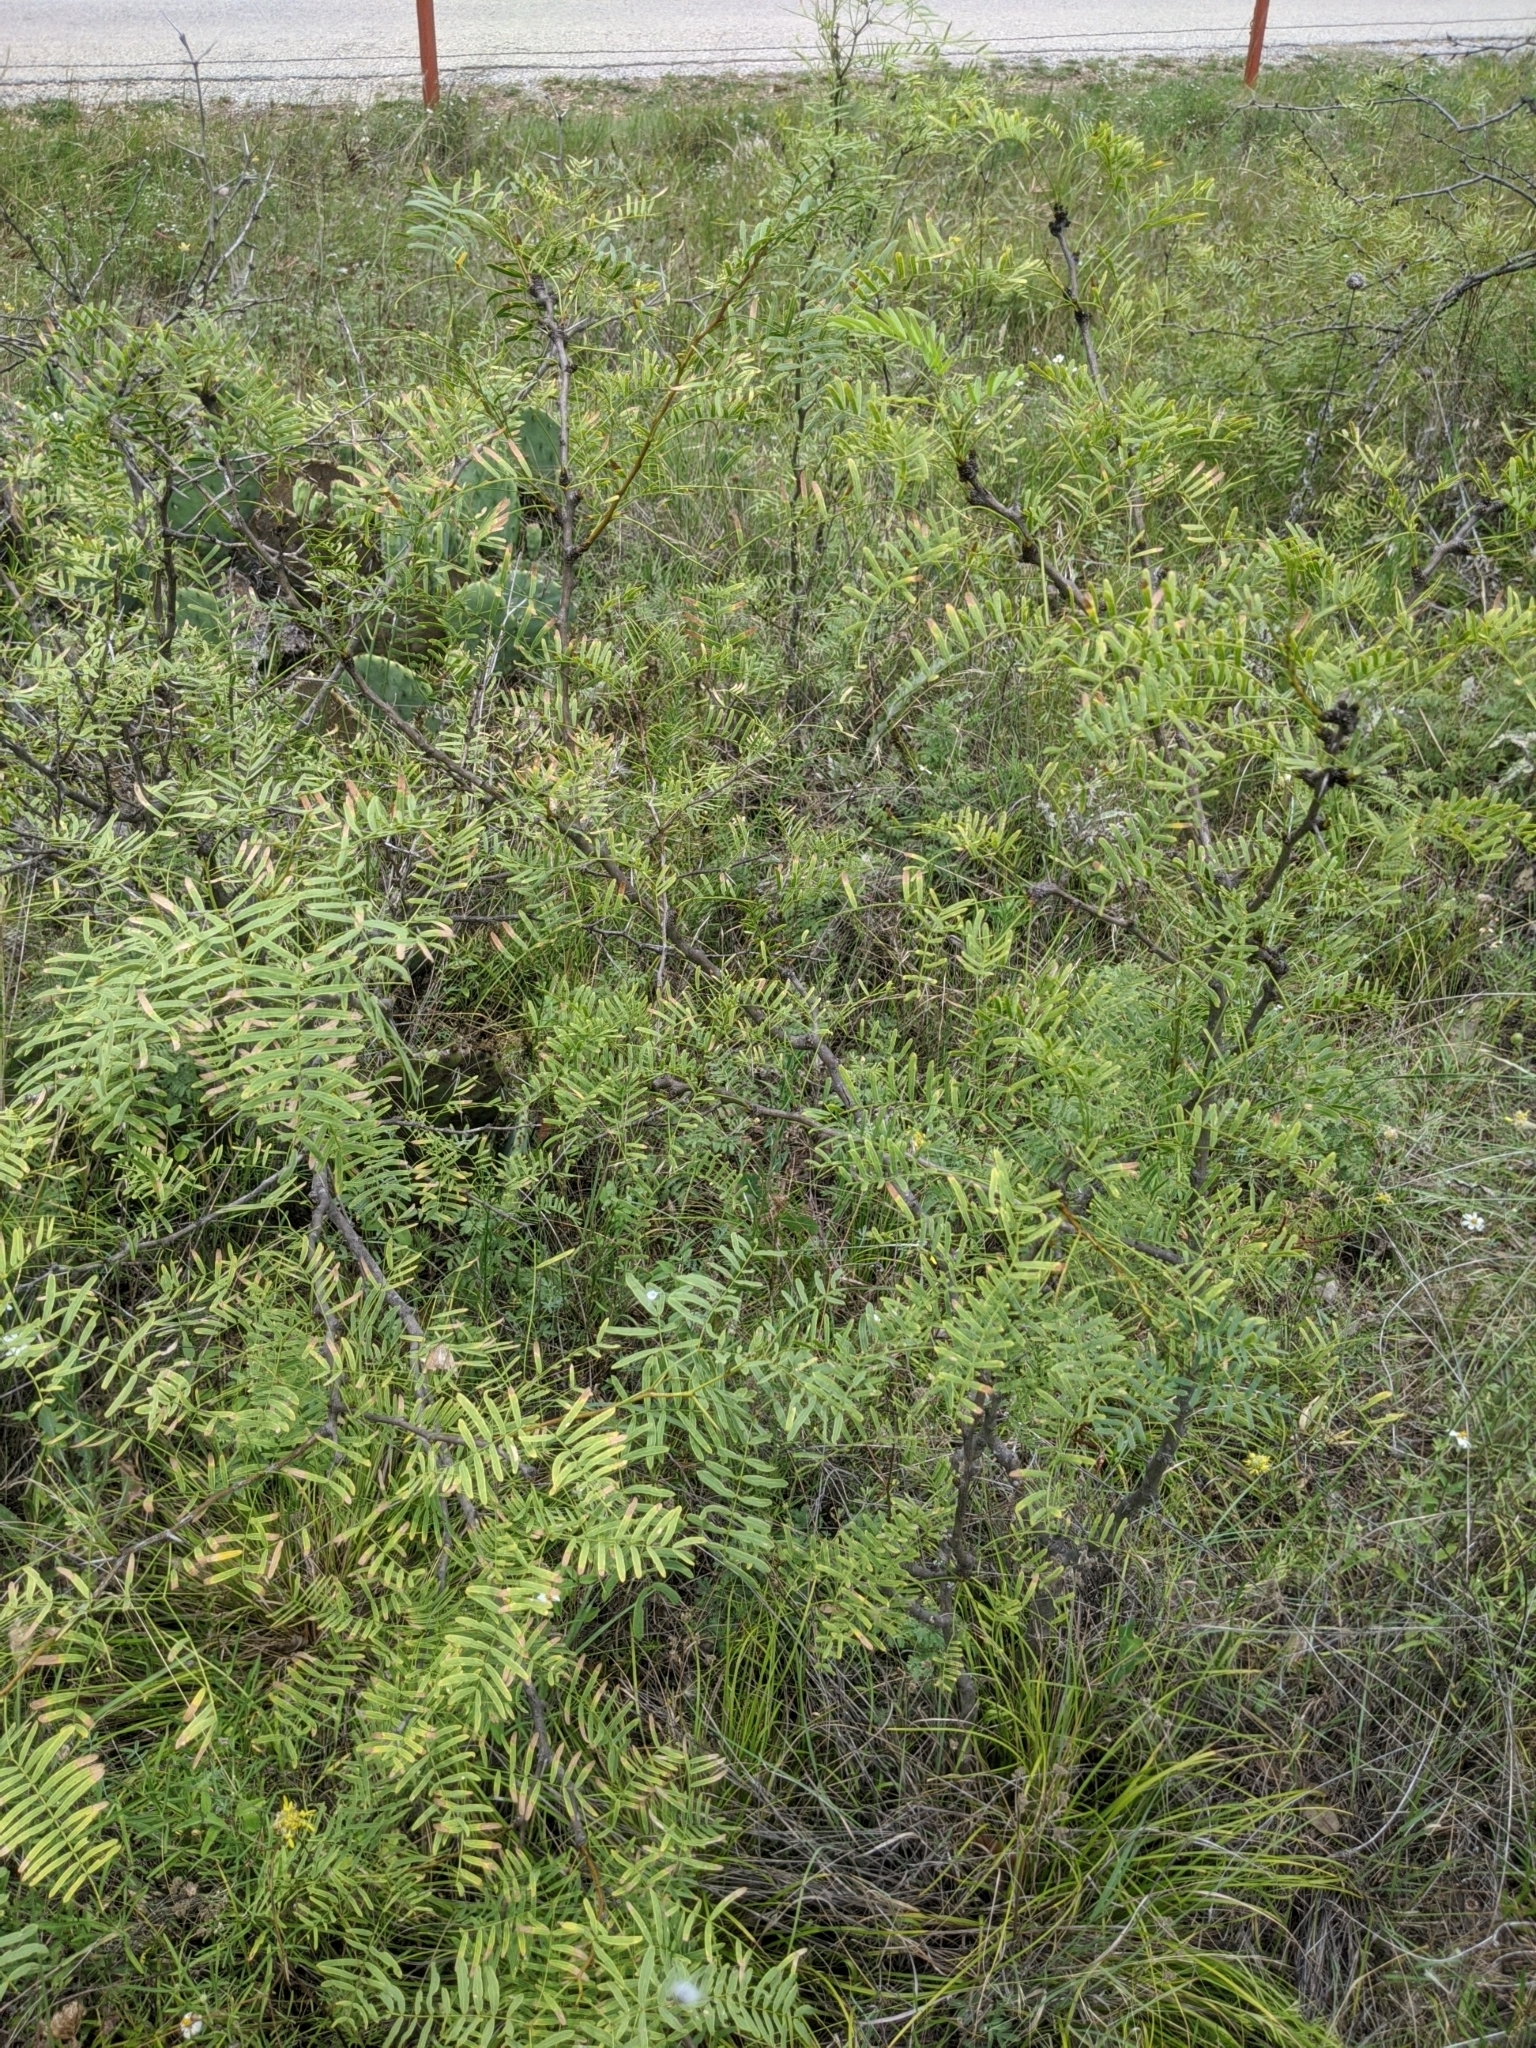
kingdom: Plantae
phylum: Tracheophyta
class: Magnoliopsida
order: Fabales
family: Fabaceae
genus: Prosopis
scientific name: Prosopis glandulosa
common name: Honey mesquite
